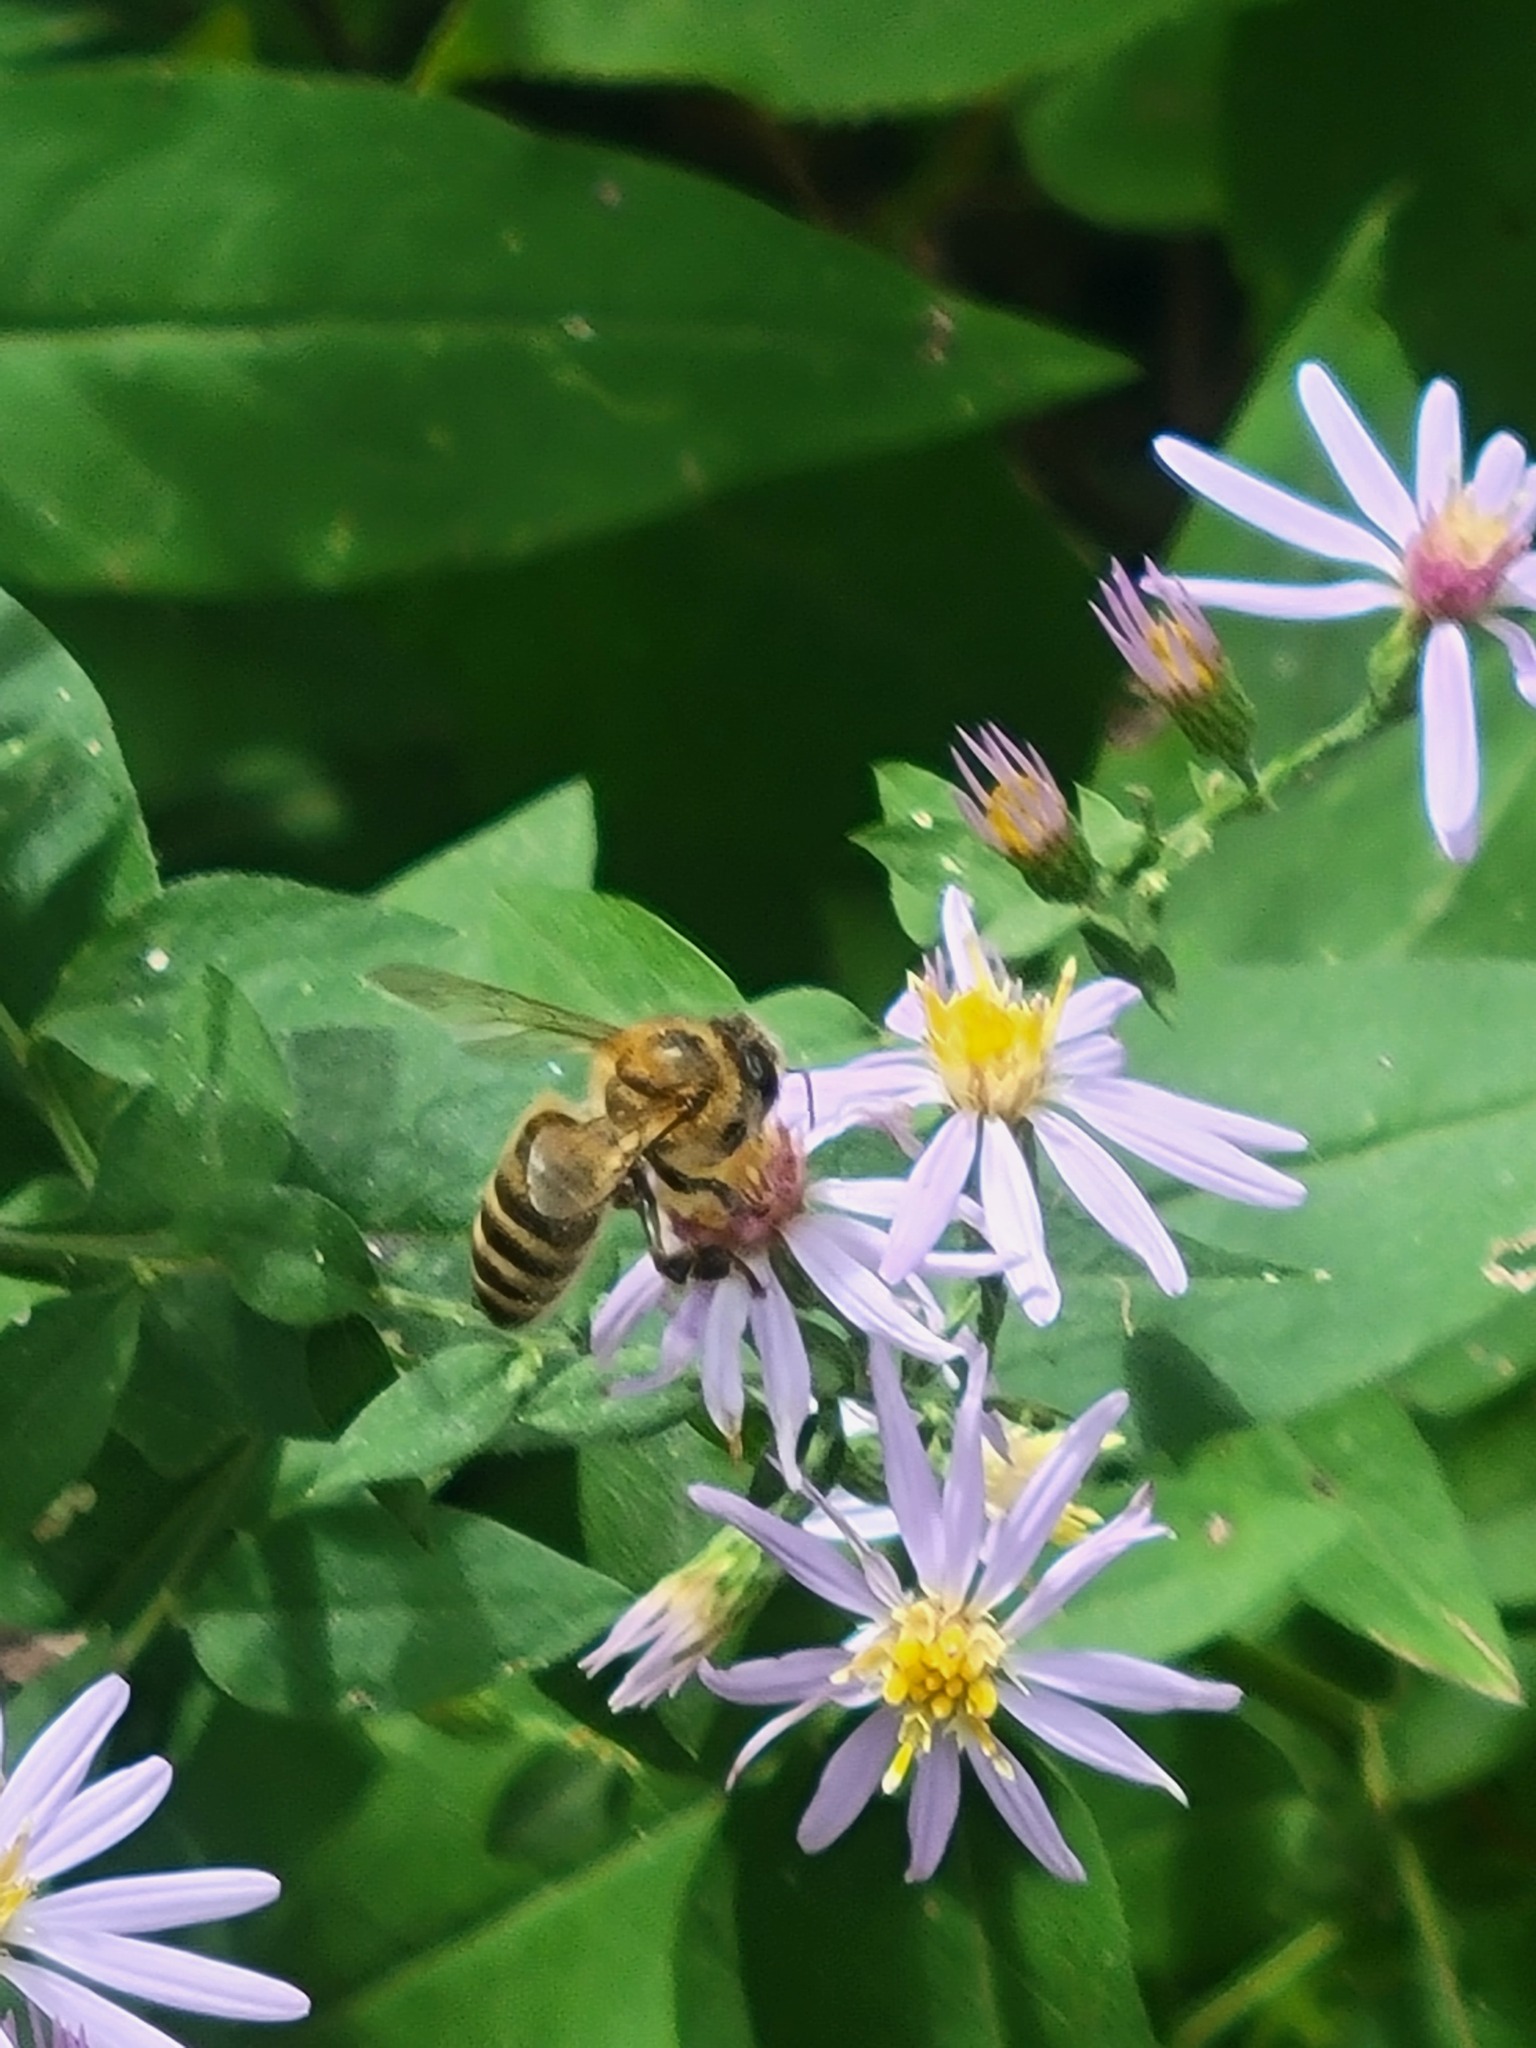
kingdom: Animalia
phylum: Arthropoda
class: Insecta
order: Hymenoptera
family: Apidae
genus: Apis
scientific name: Apis mellifera
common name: Honey bee
